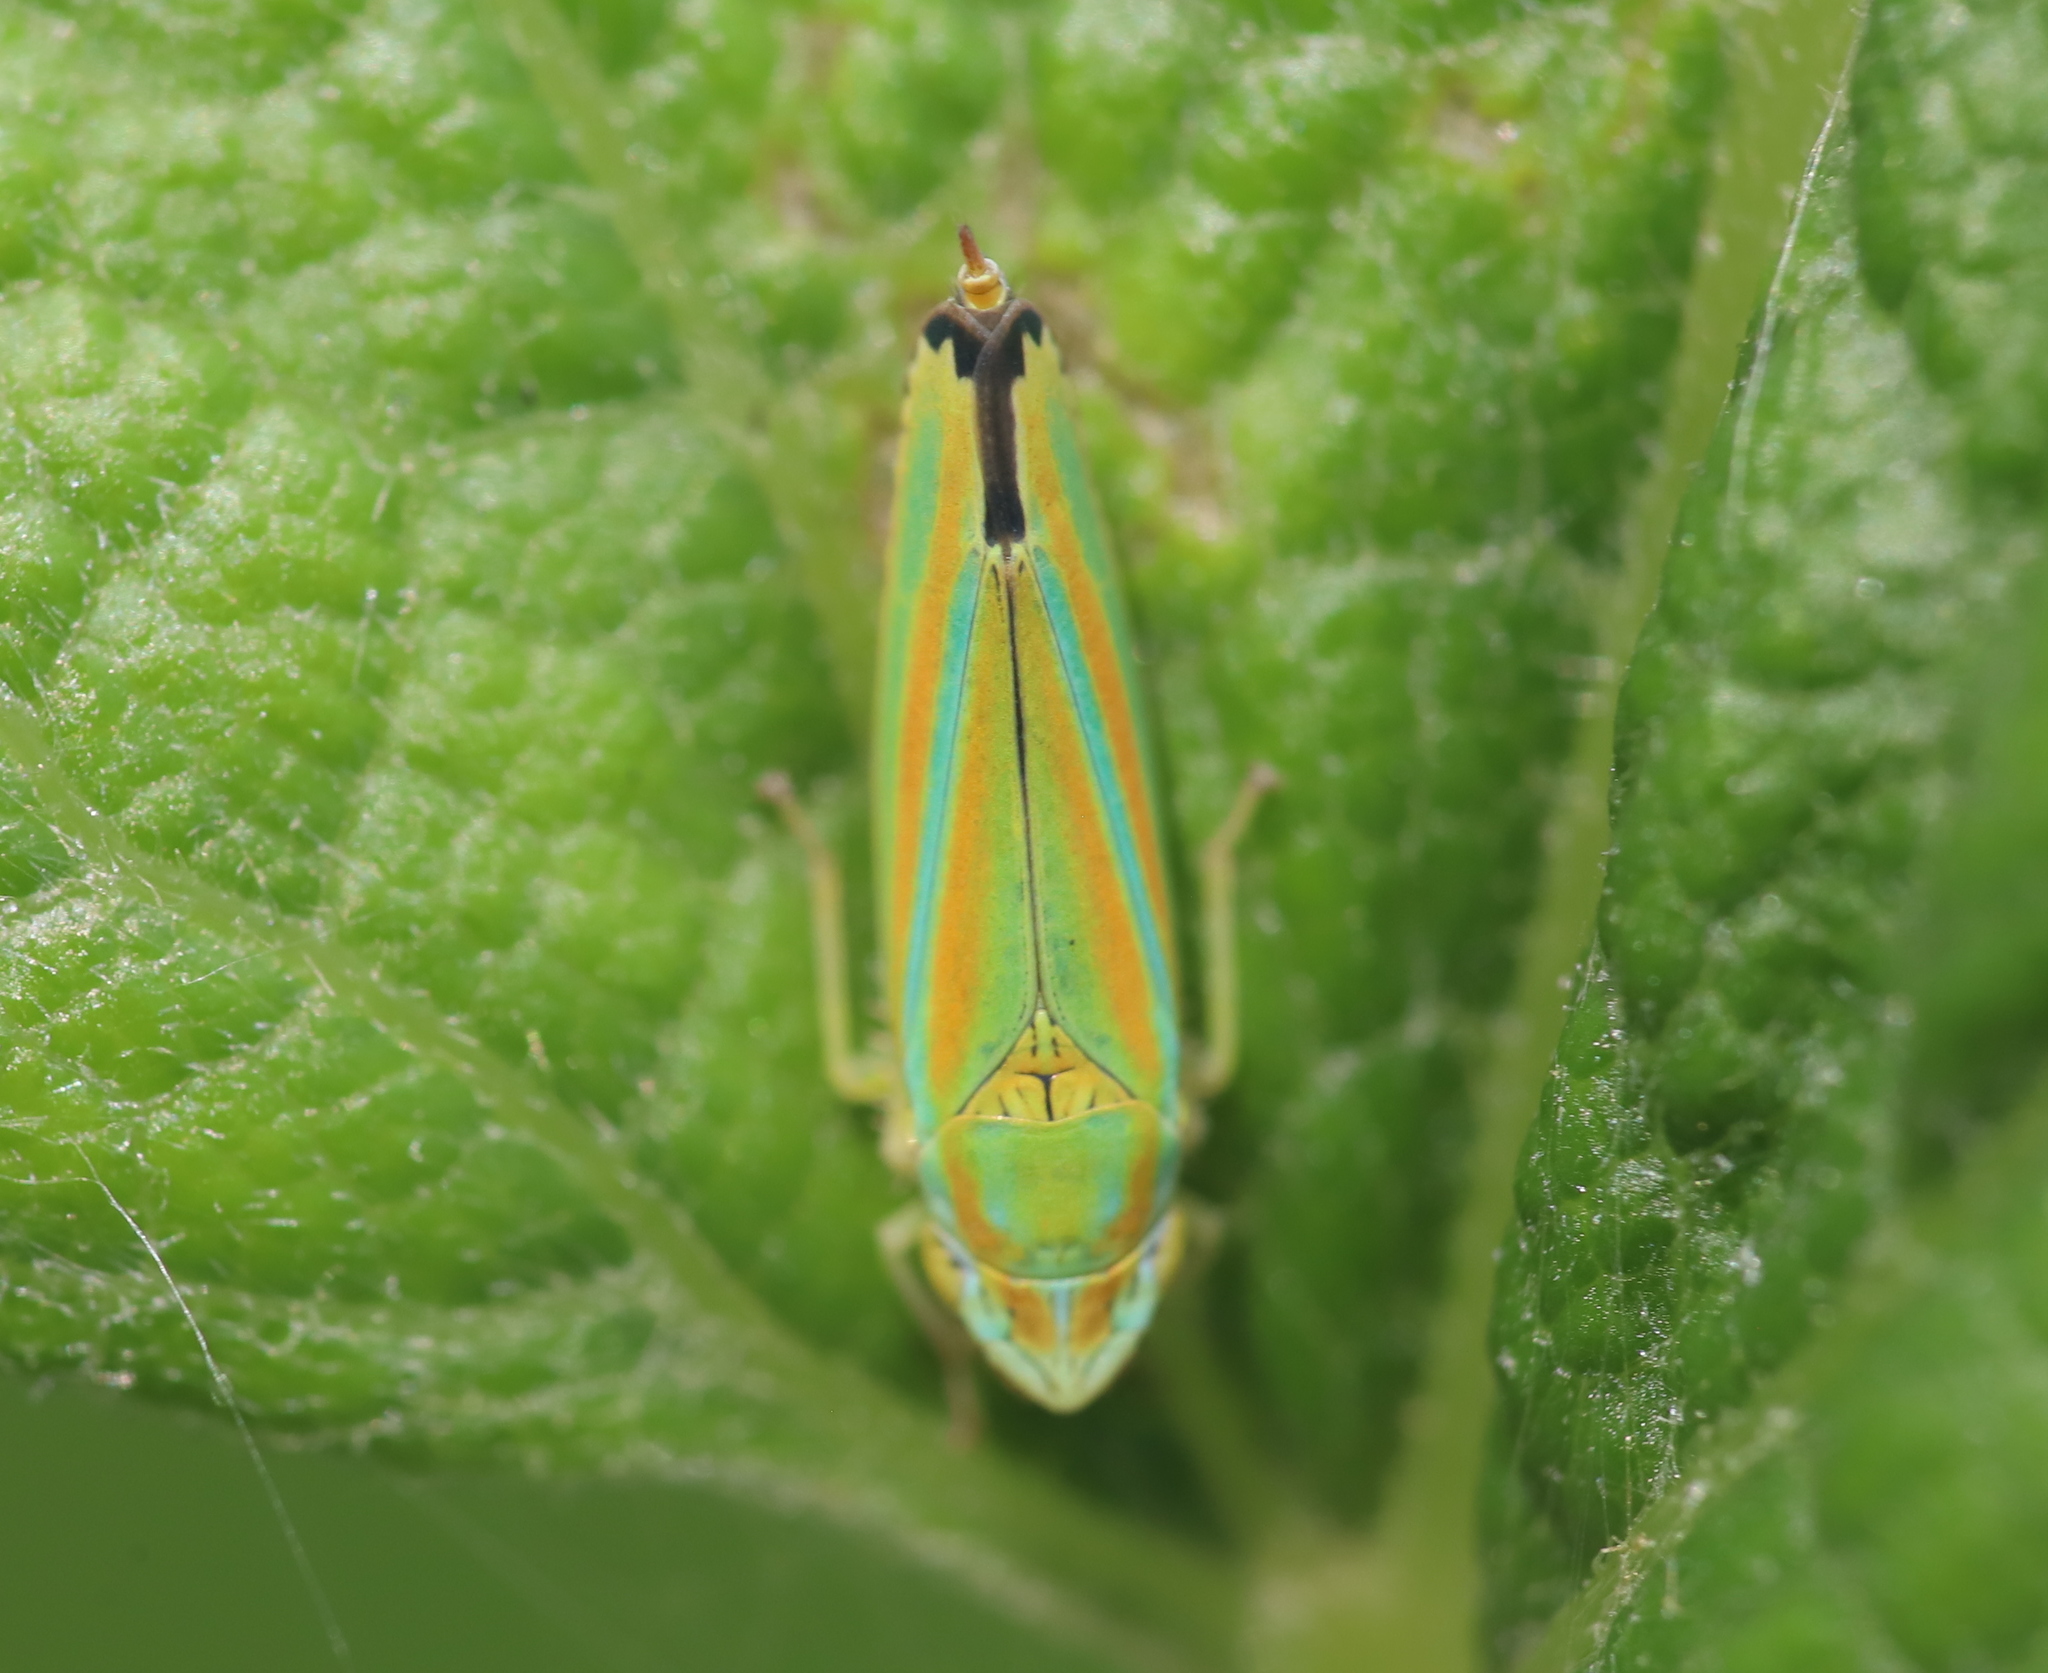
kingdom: Animalia
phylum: Arthropoda
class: Insecta
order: Hemiptera
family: Cicadellidae
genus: Graphocephala
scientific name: Graphocephala versuta
